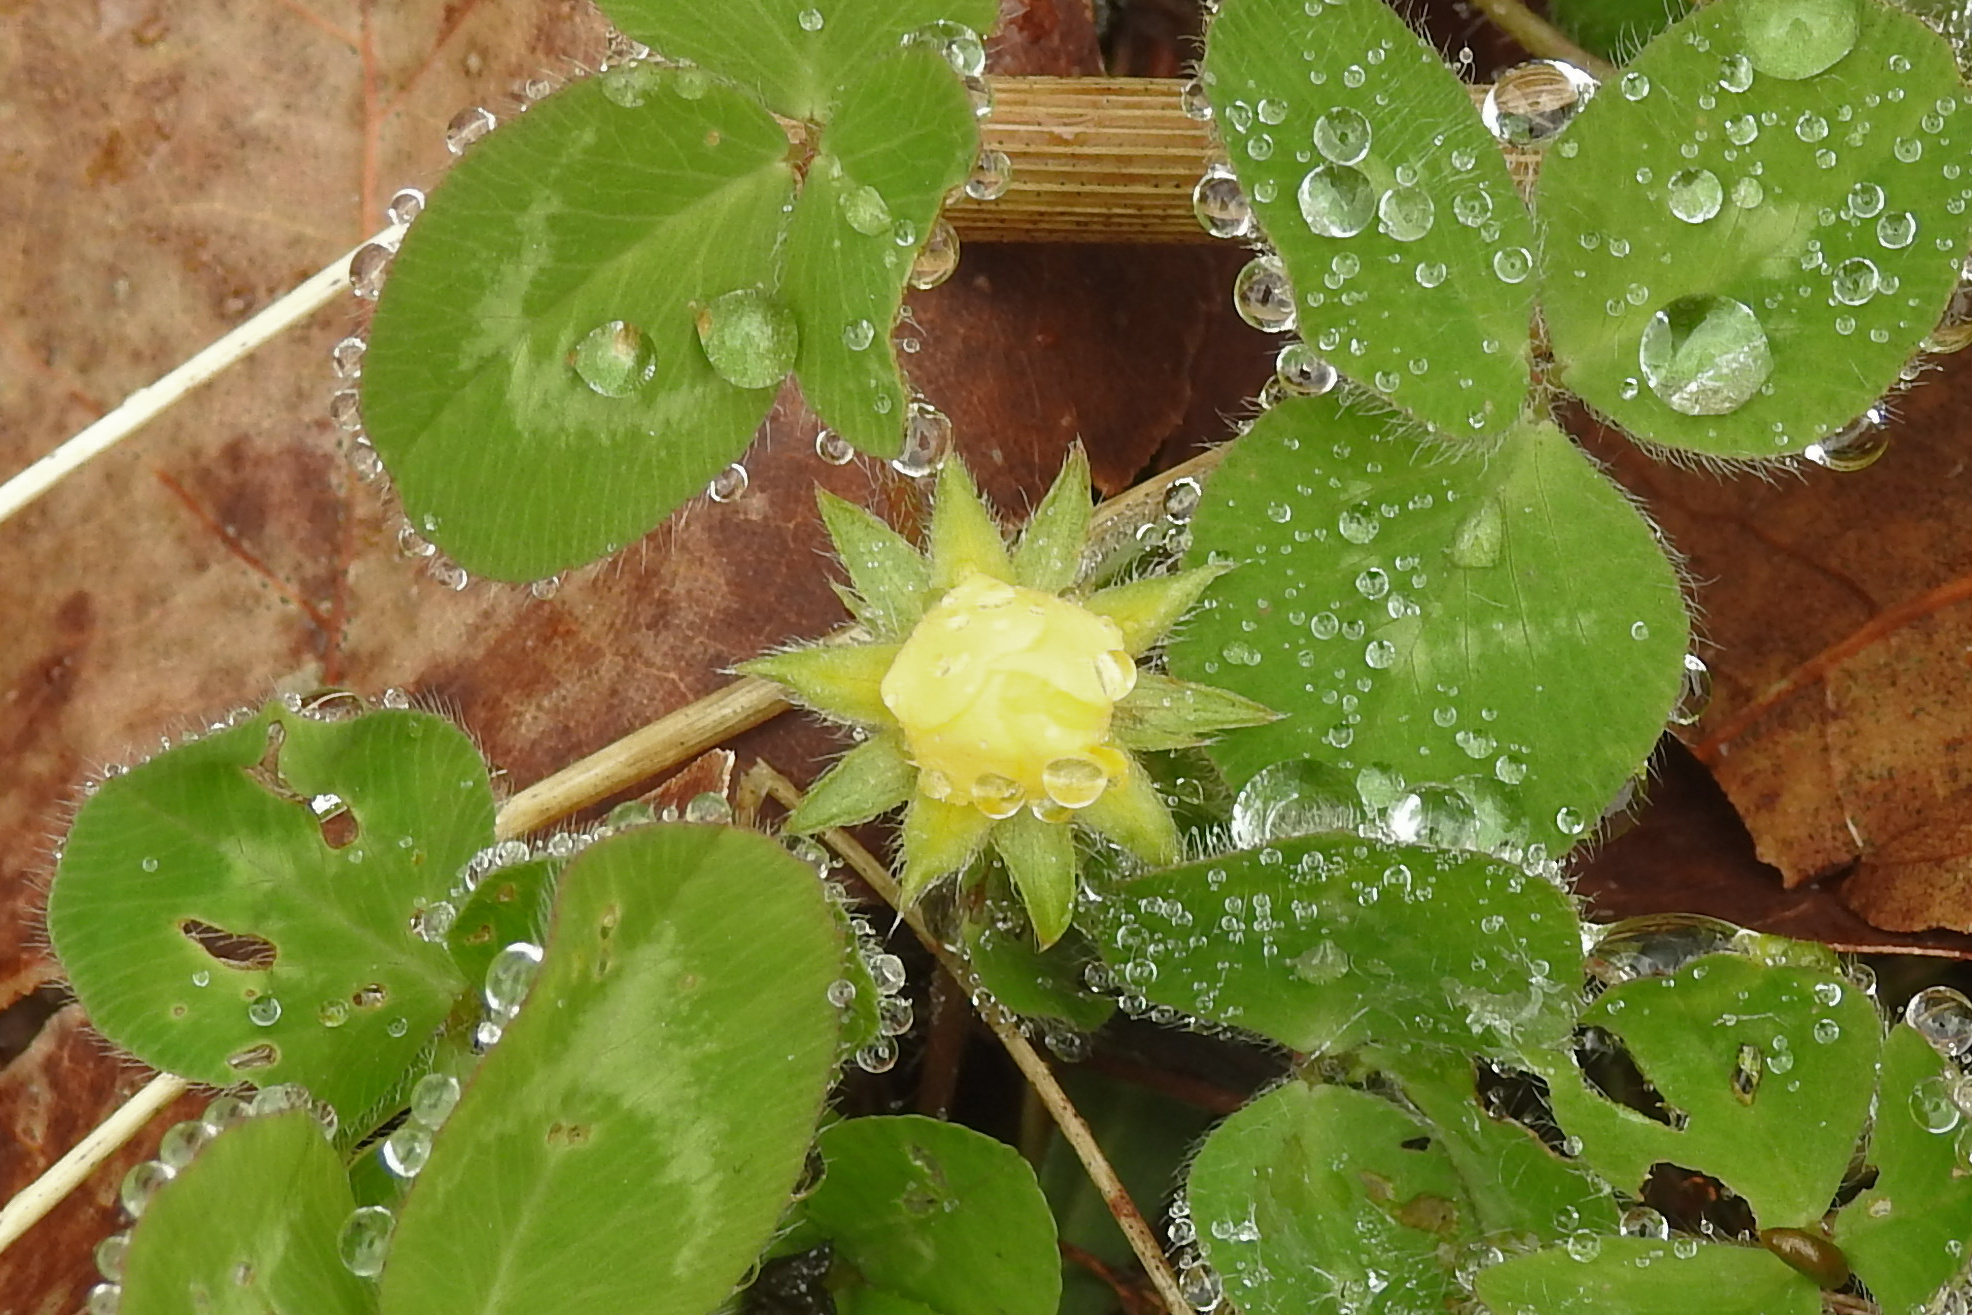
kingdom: Plantae
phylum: Tracheophyta
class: Magnoliopsida
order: Fabales
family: Fabaceae
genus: Trifolium
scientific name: Trifolium pratense
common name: Red clover
